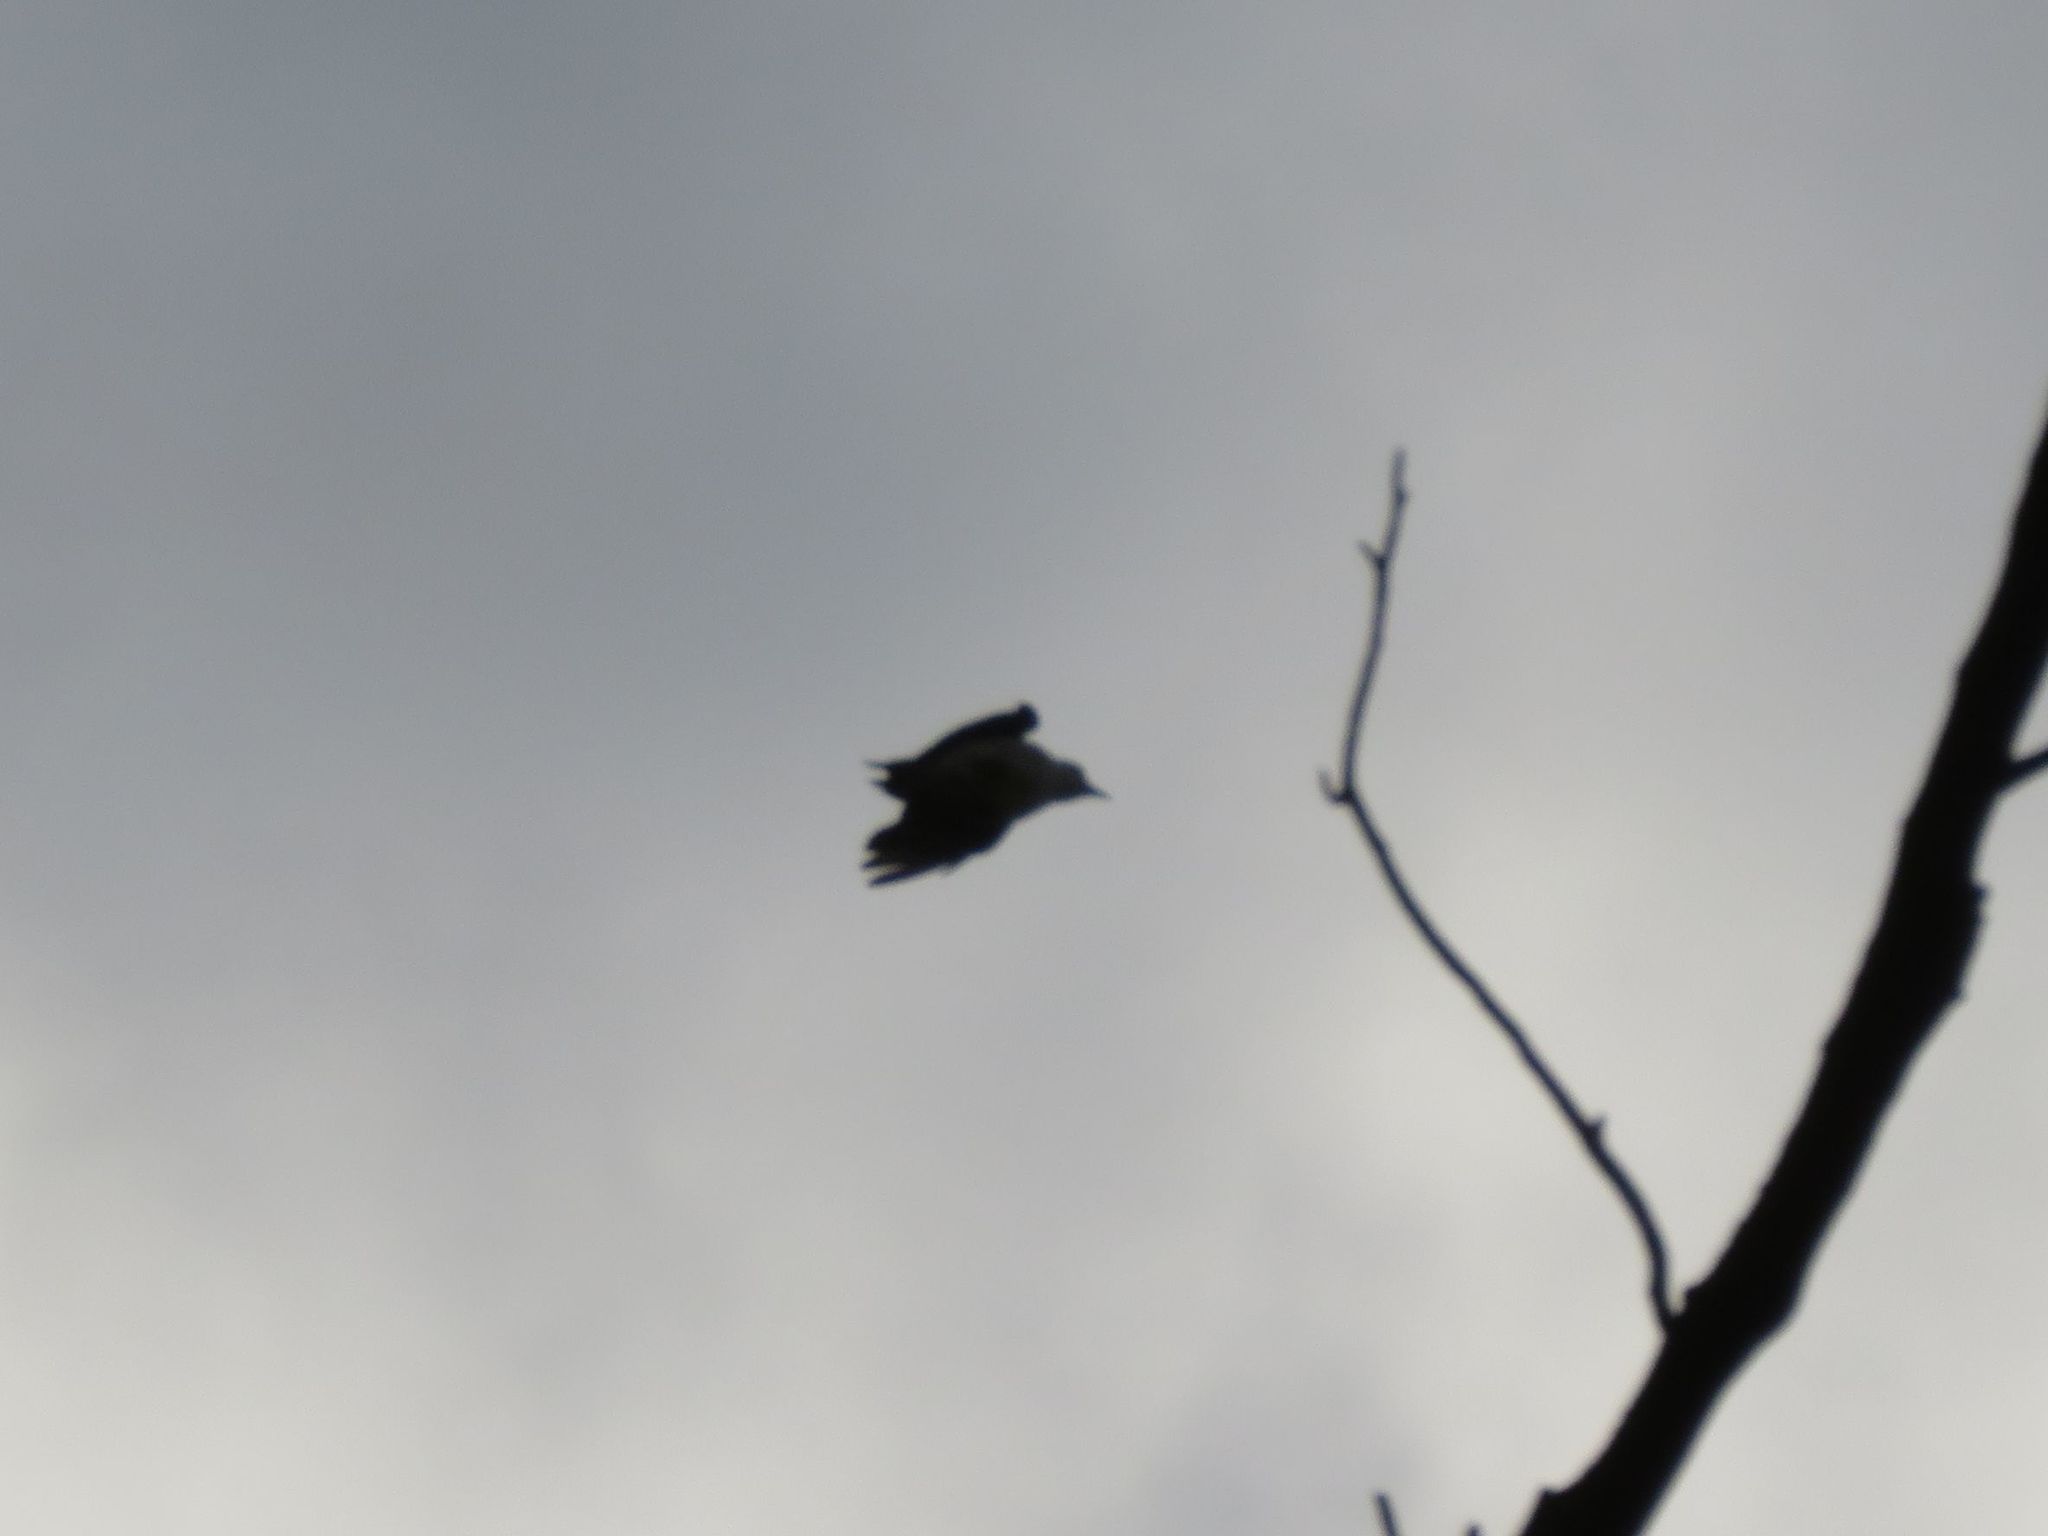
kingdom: Animalia
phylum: Chordata
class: Aves
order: Piciformes
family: Picidae
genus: Melanerpes
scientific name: Melanerpes candidus
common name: White woodpecker
